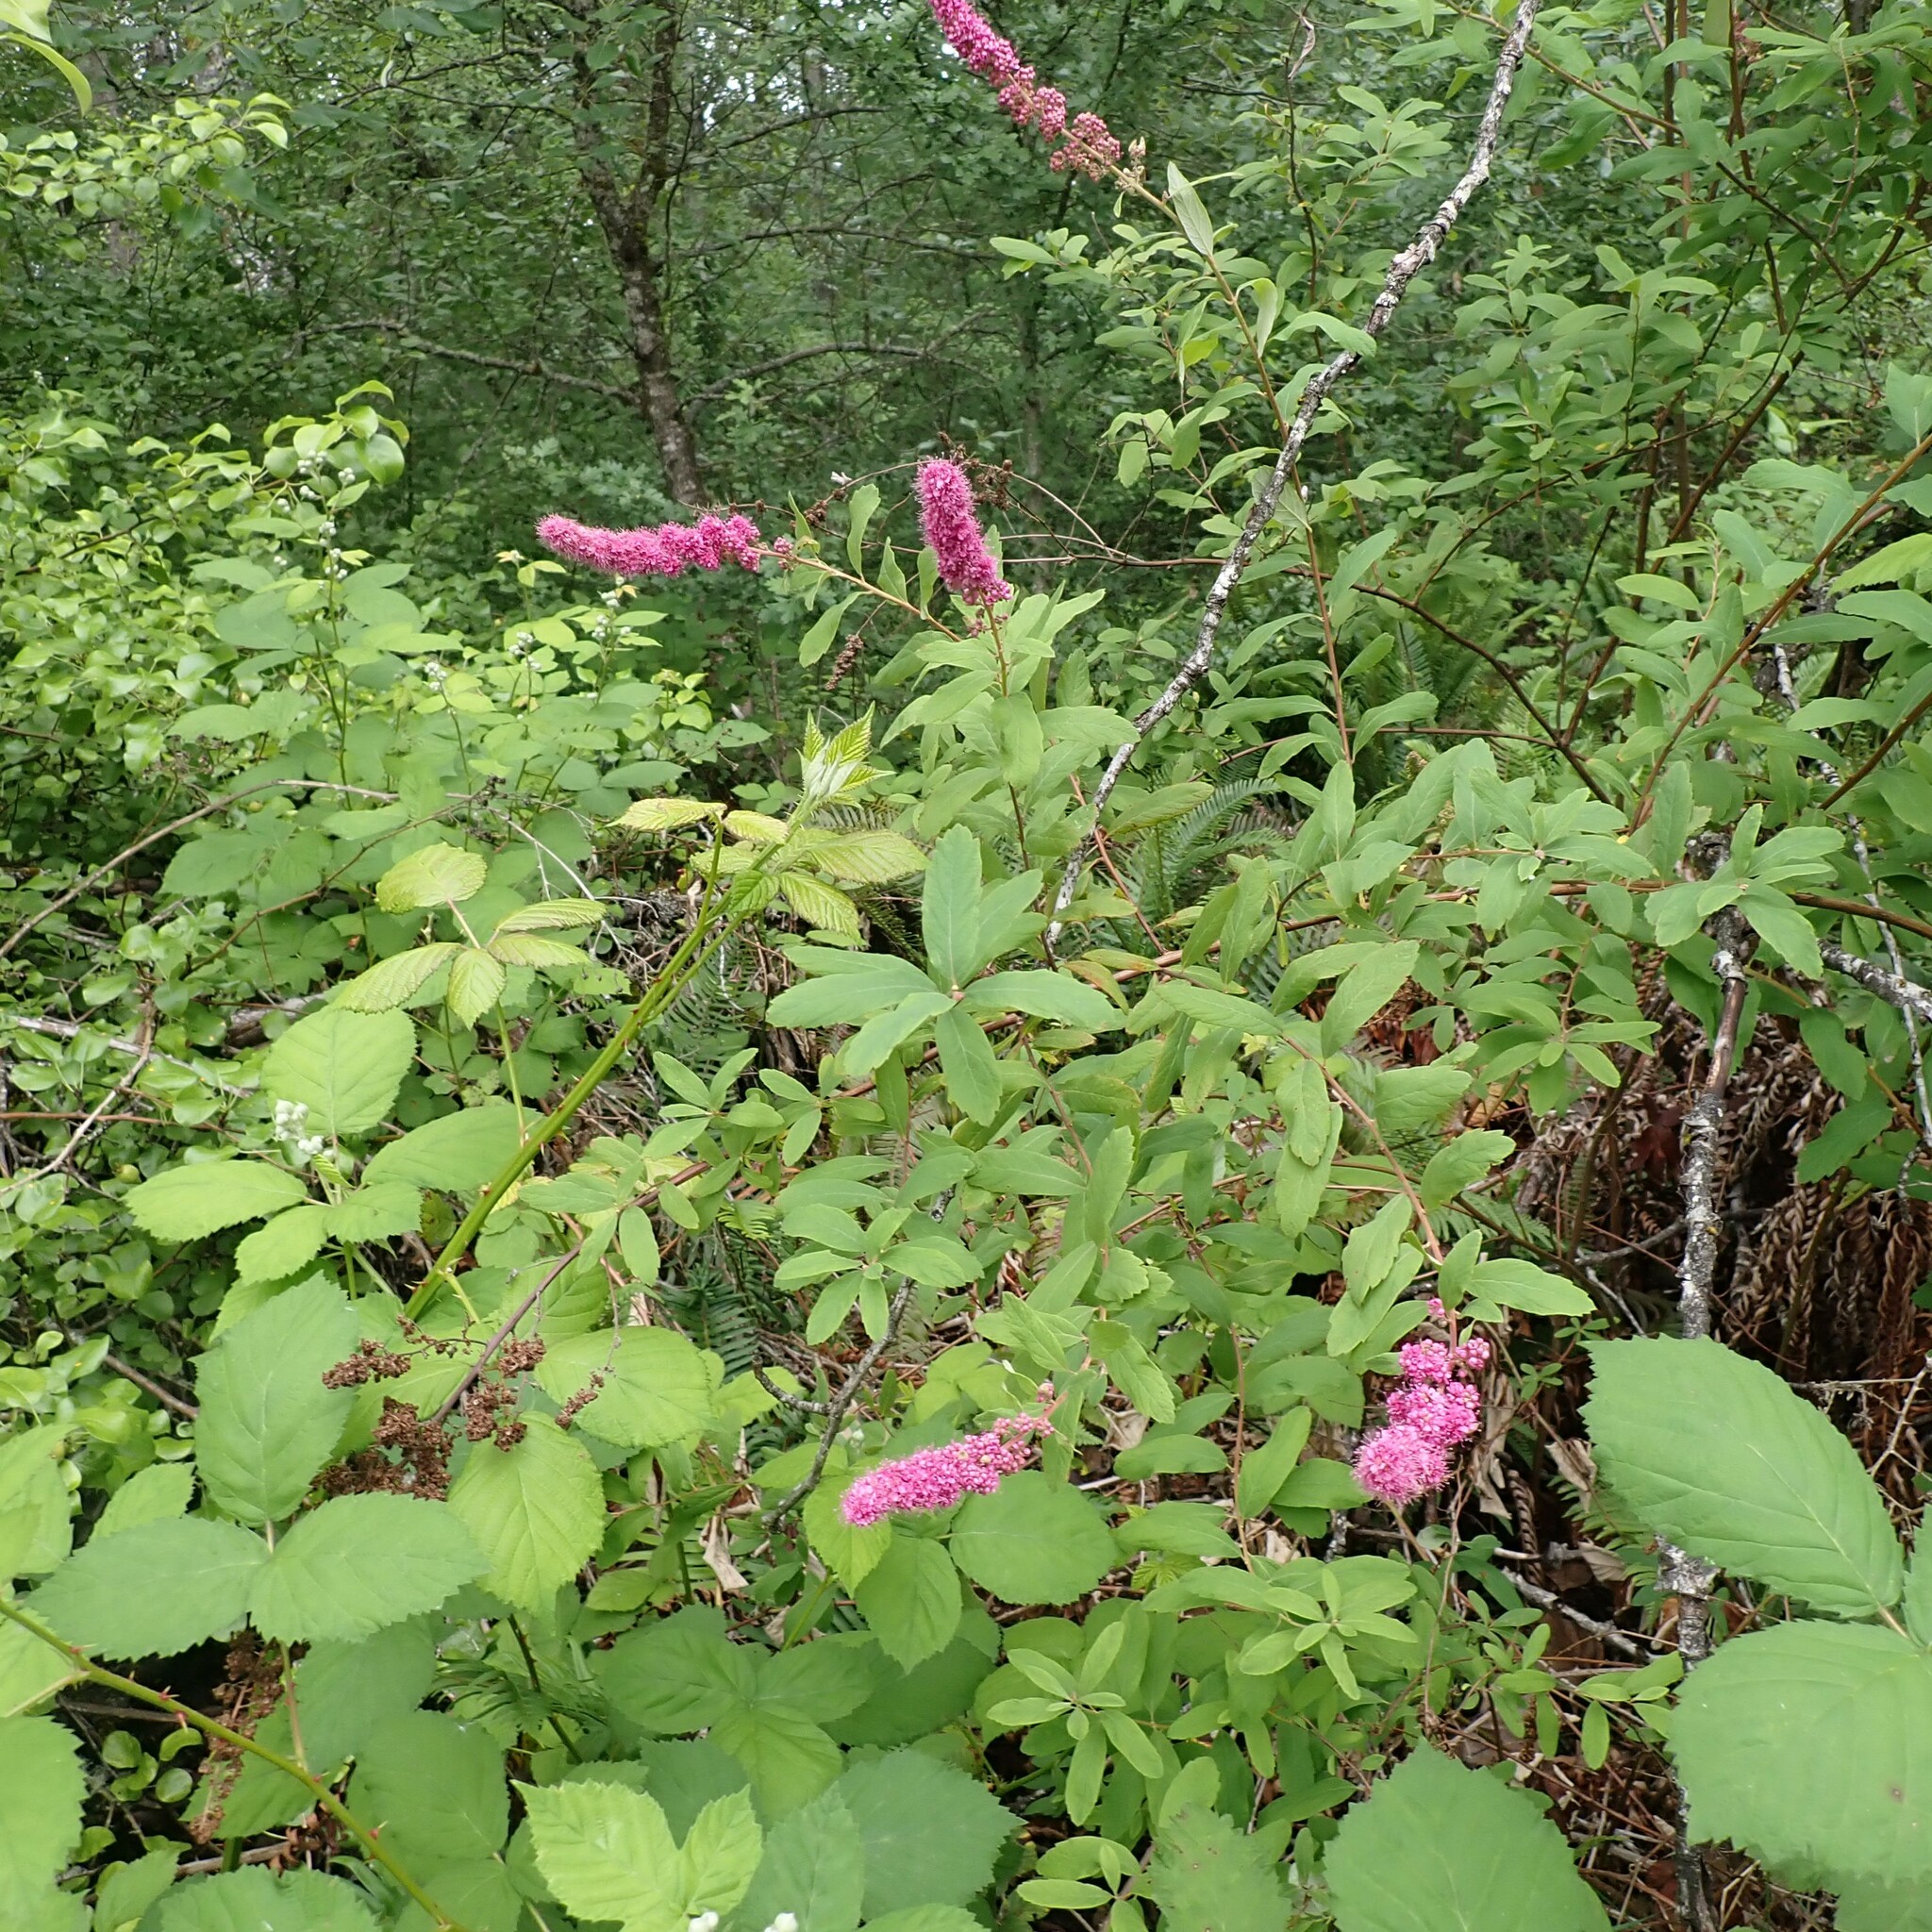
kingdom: Plantae
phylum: Tracheophyta
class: Magnoliopsida
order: Rosales
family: Rosaceae
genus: Spiraea
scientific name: Spiraea douglasii
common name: Steeplebush
